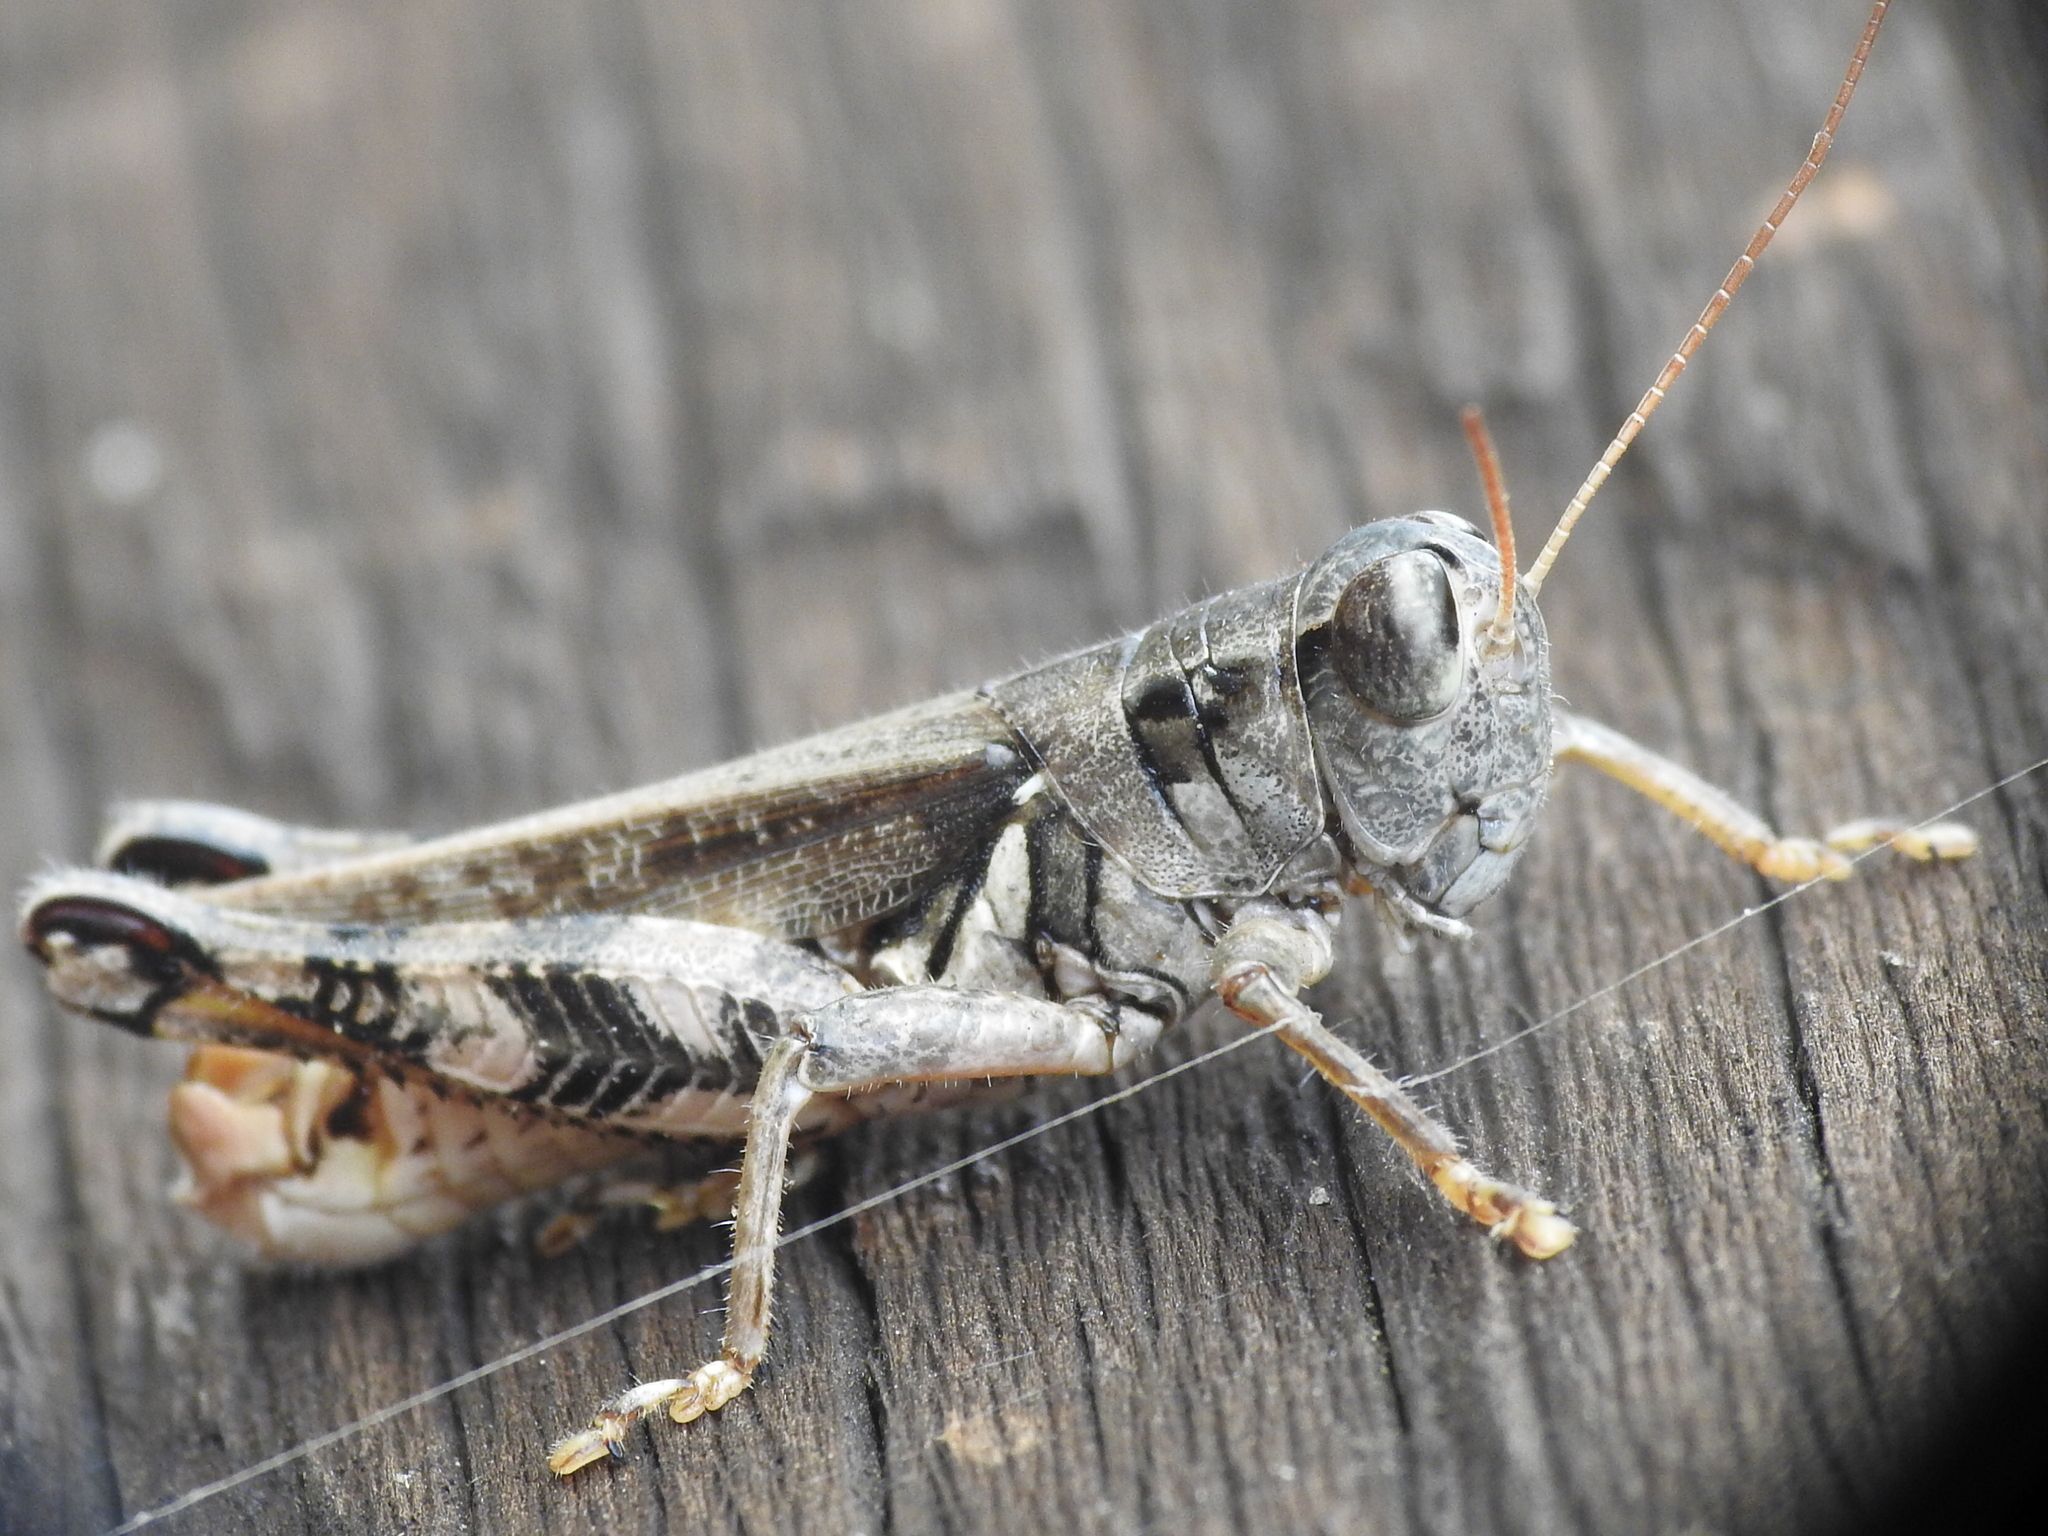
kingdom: Animalia
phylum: Arthropoda
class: Insecta
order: Orthoptera
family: Acrididae
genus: Melanoplus
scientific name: Melanoplus ponderosus
